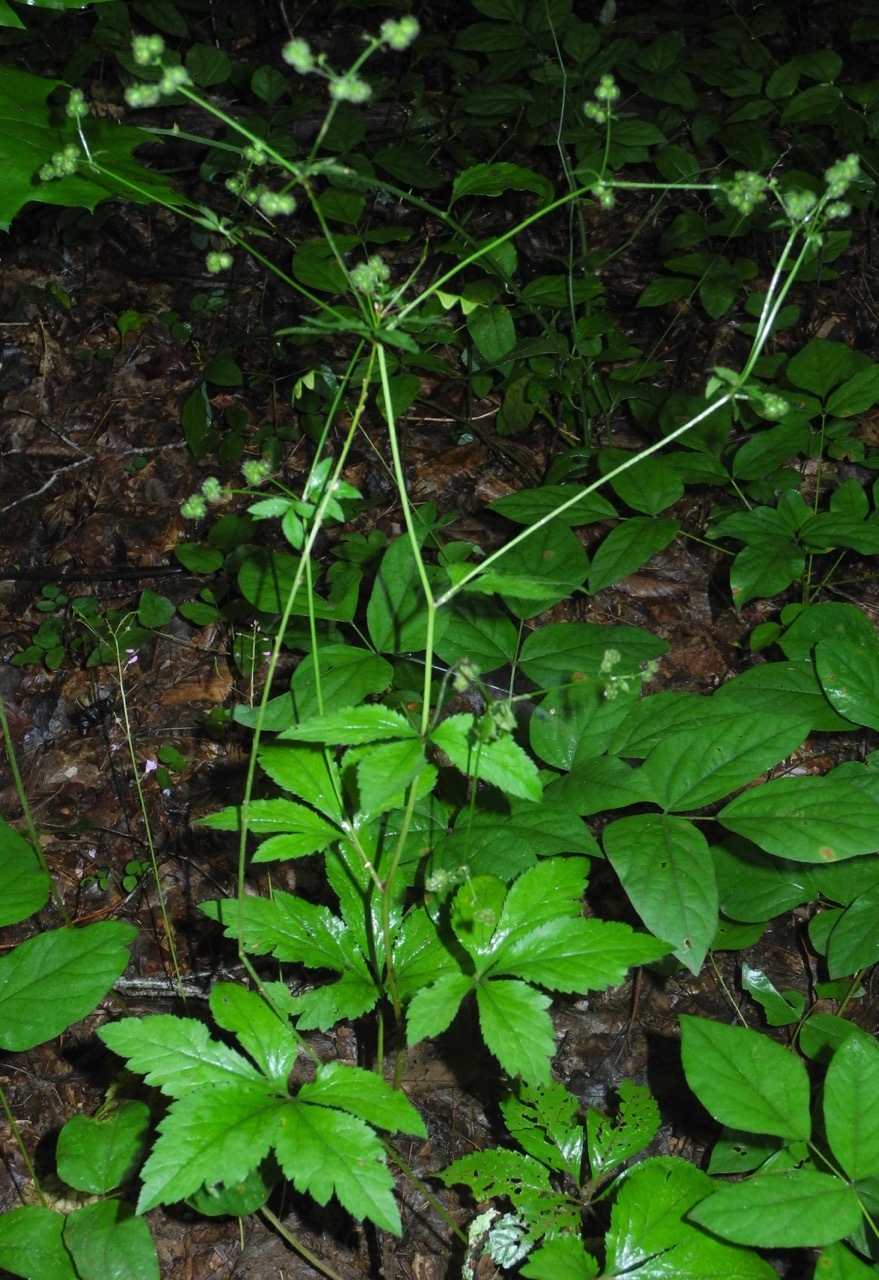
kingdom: Plantae
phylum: Tracheophyta
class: Magnoliopsida
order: Apiales
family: Apiaceae
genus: Sanicula
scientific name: Sanicula canadensis
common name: Canada sanicle
